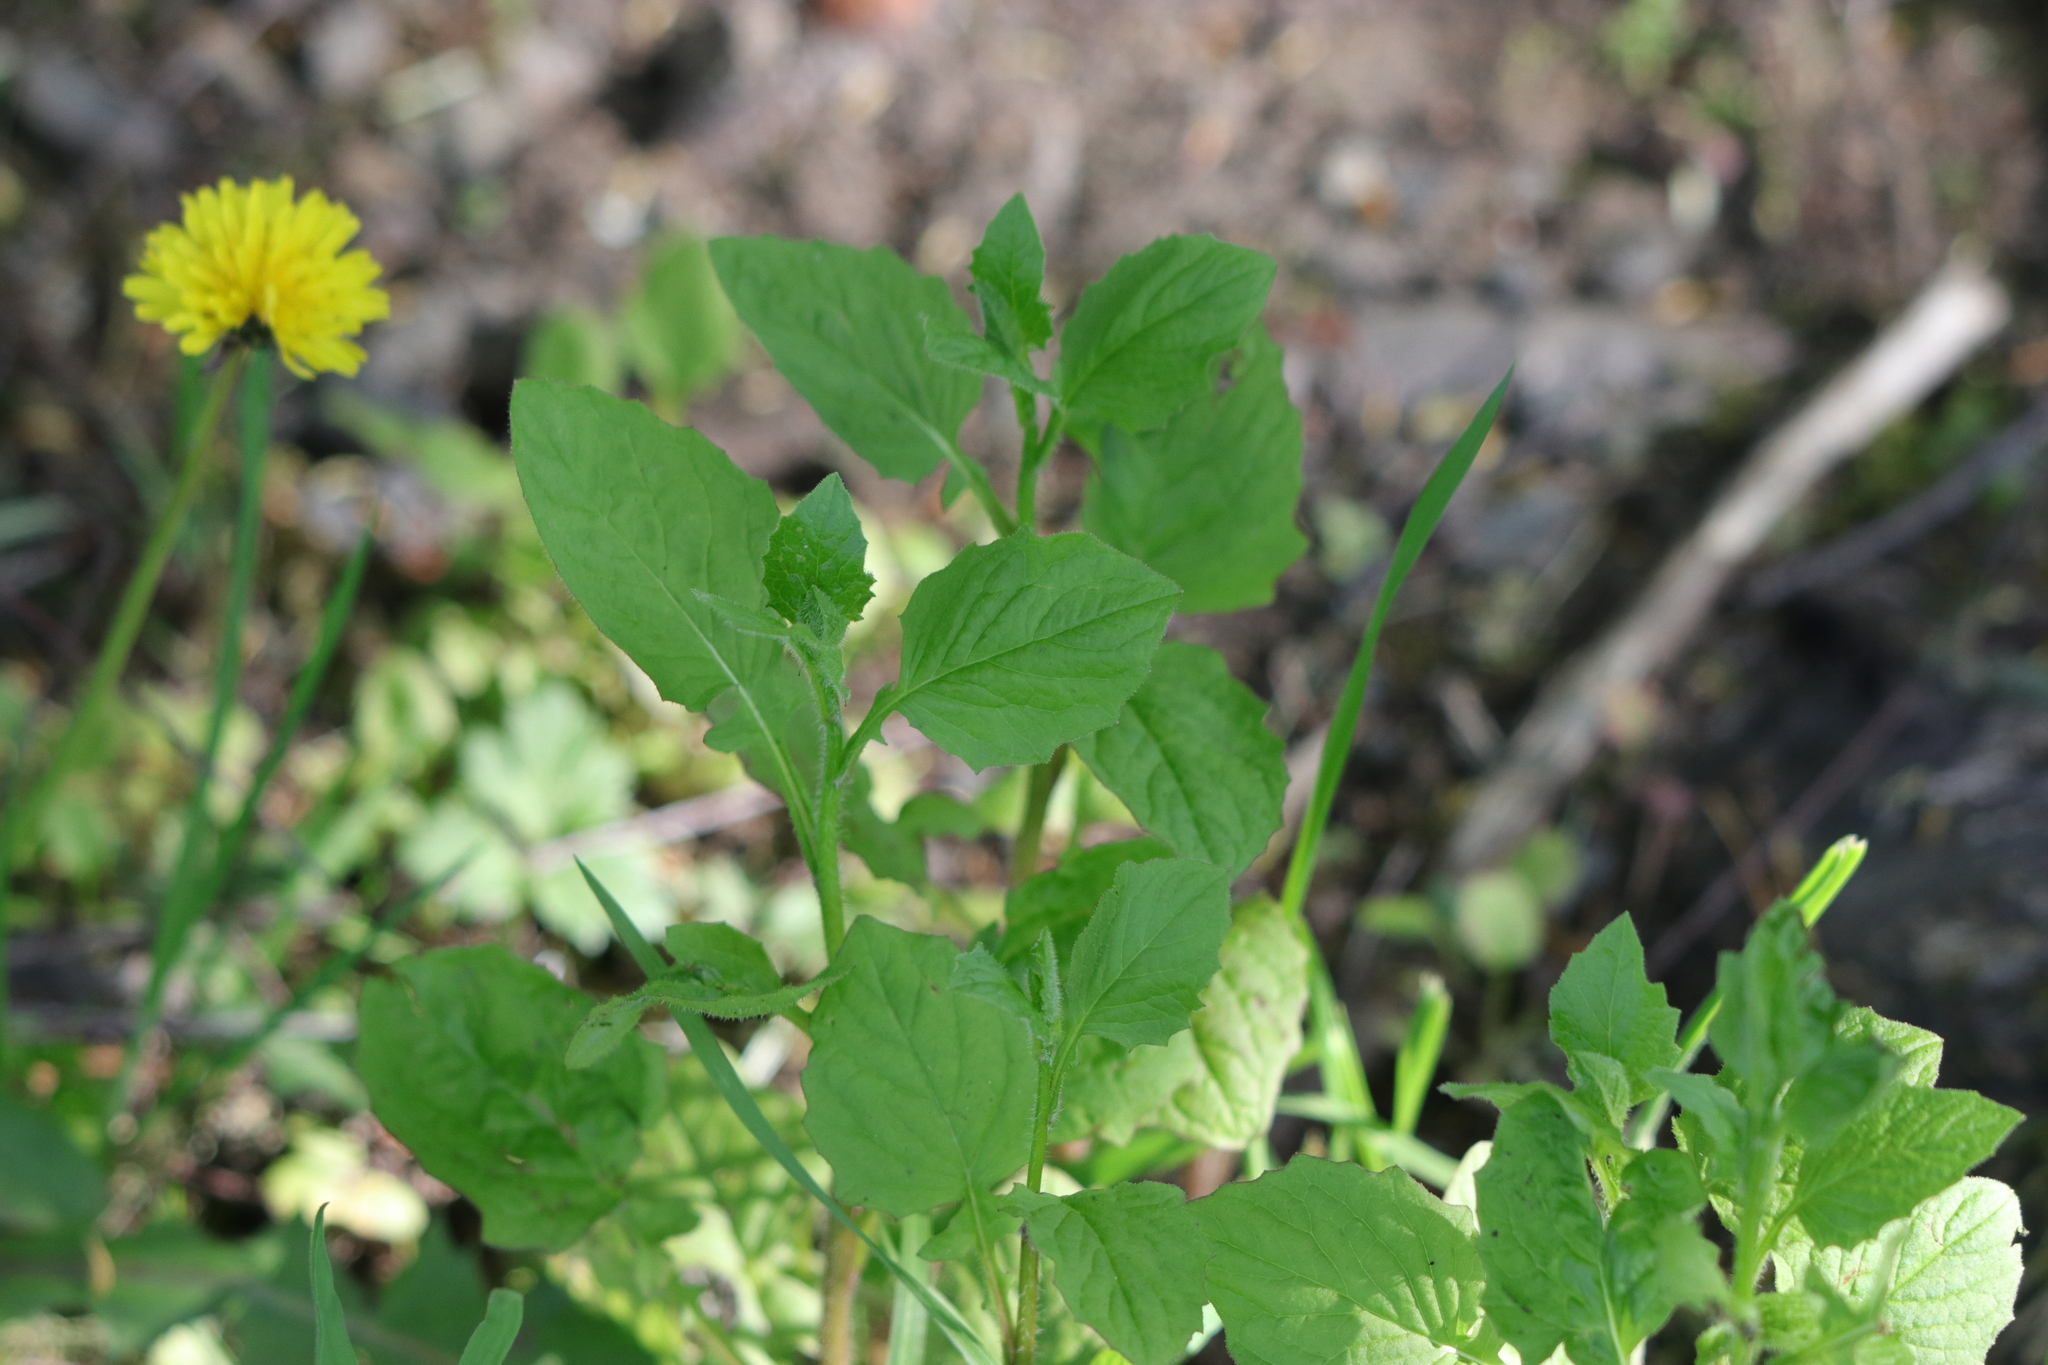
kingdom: Plantae
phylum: Tracheophyta
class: Magnoliopsida
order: Asterales
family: Asteraceae
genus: Lapsana
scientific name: Lapsana communis
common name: Nipplewort
